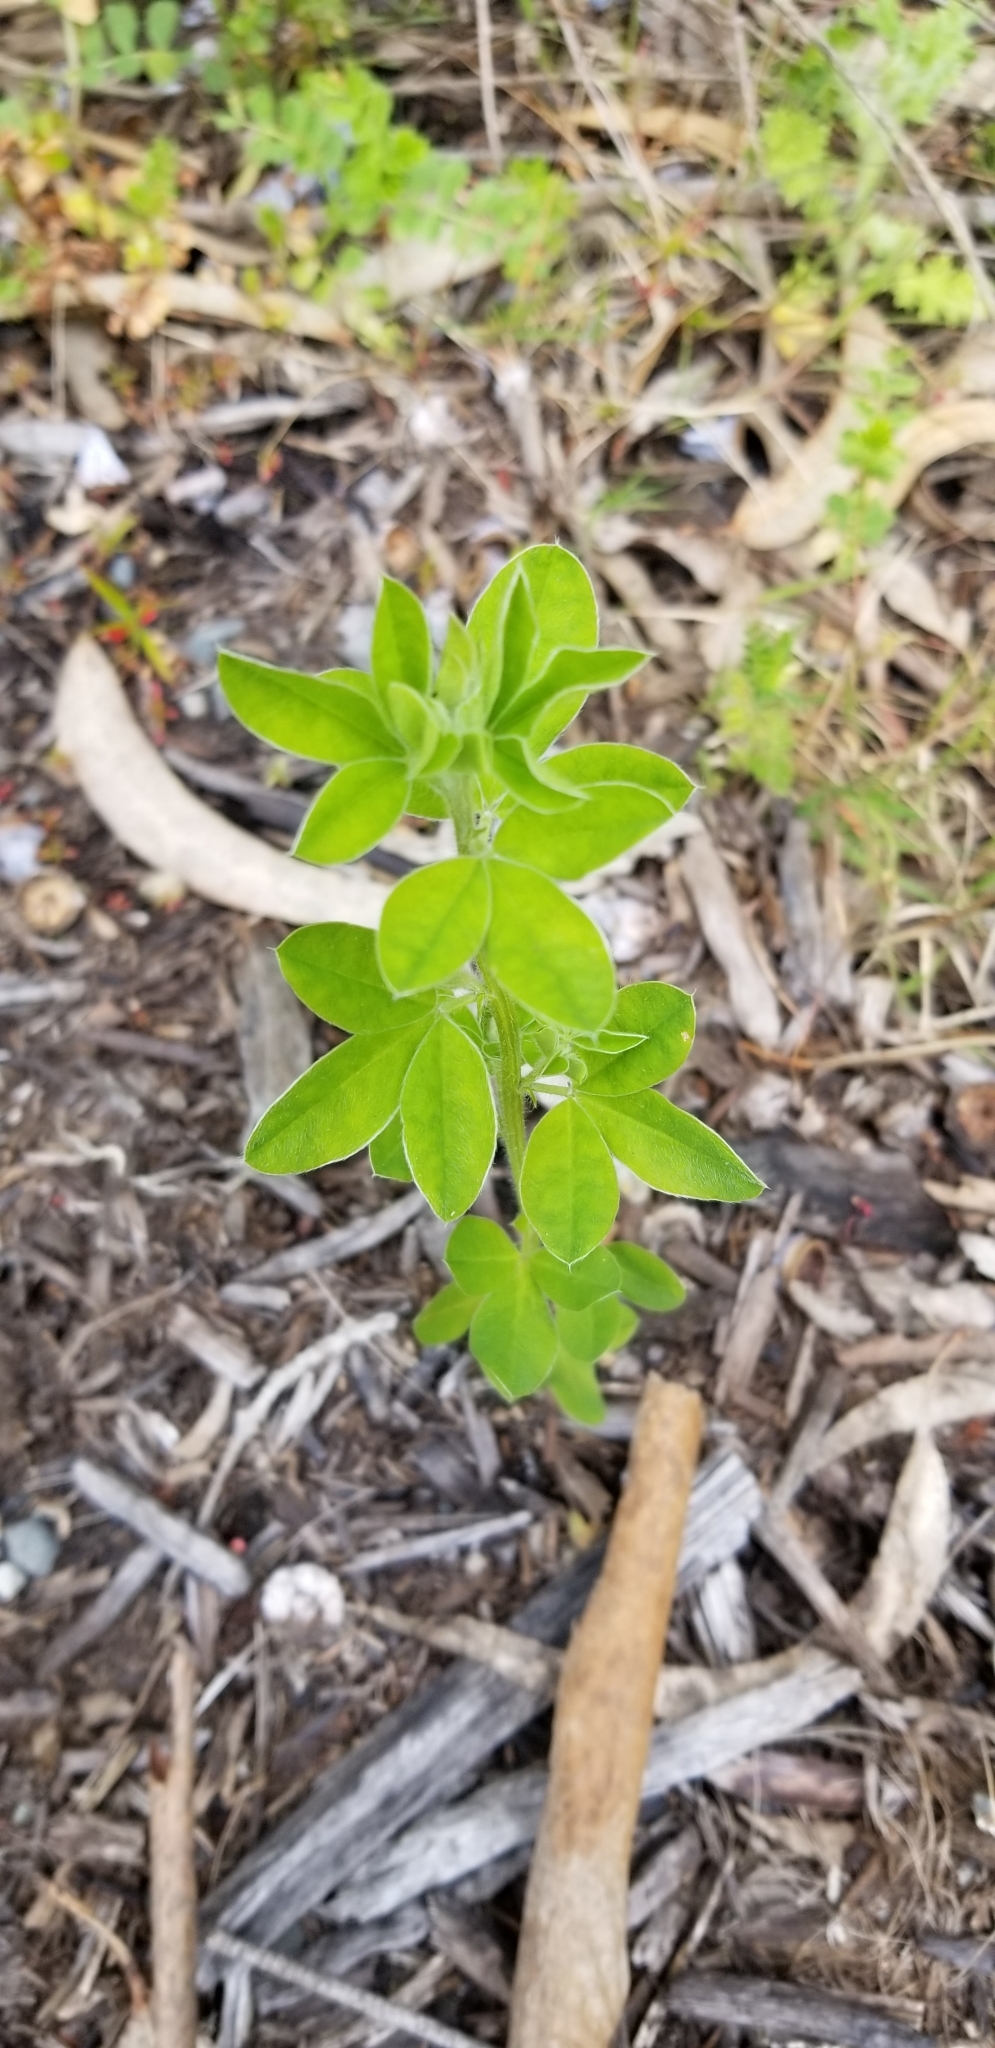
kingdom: Plantae
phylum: Tracheophyta
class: Magnoliopsida
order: Fabales
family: Fabaceae
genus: Genista
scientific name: Genista monspessulana
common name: Montpellier broom
